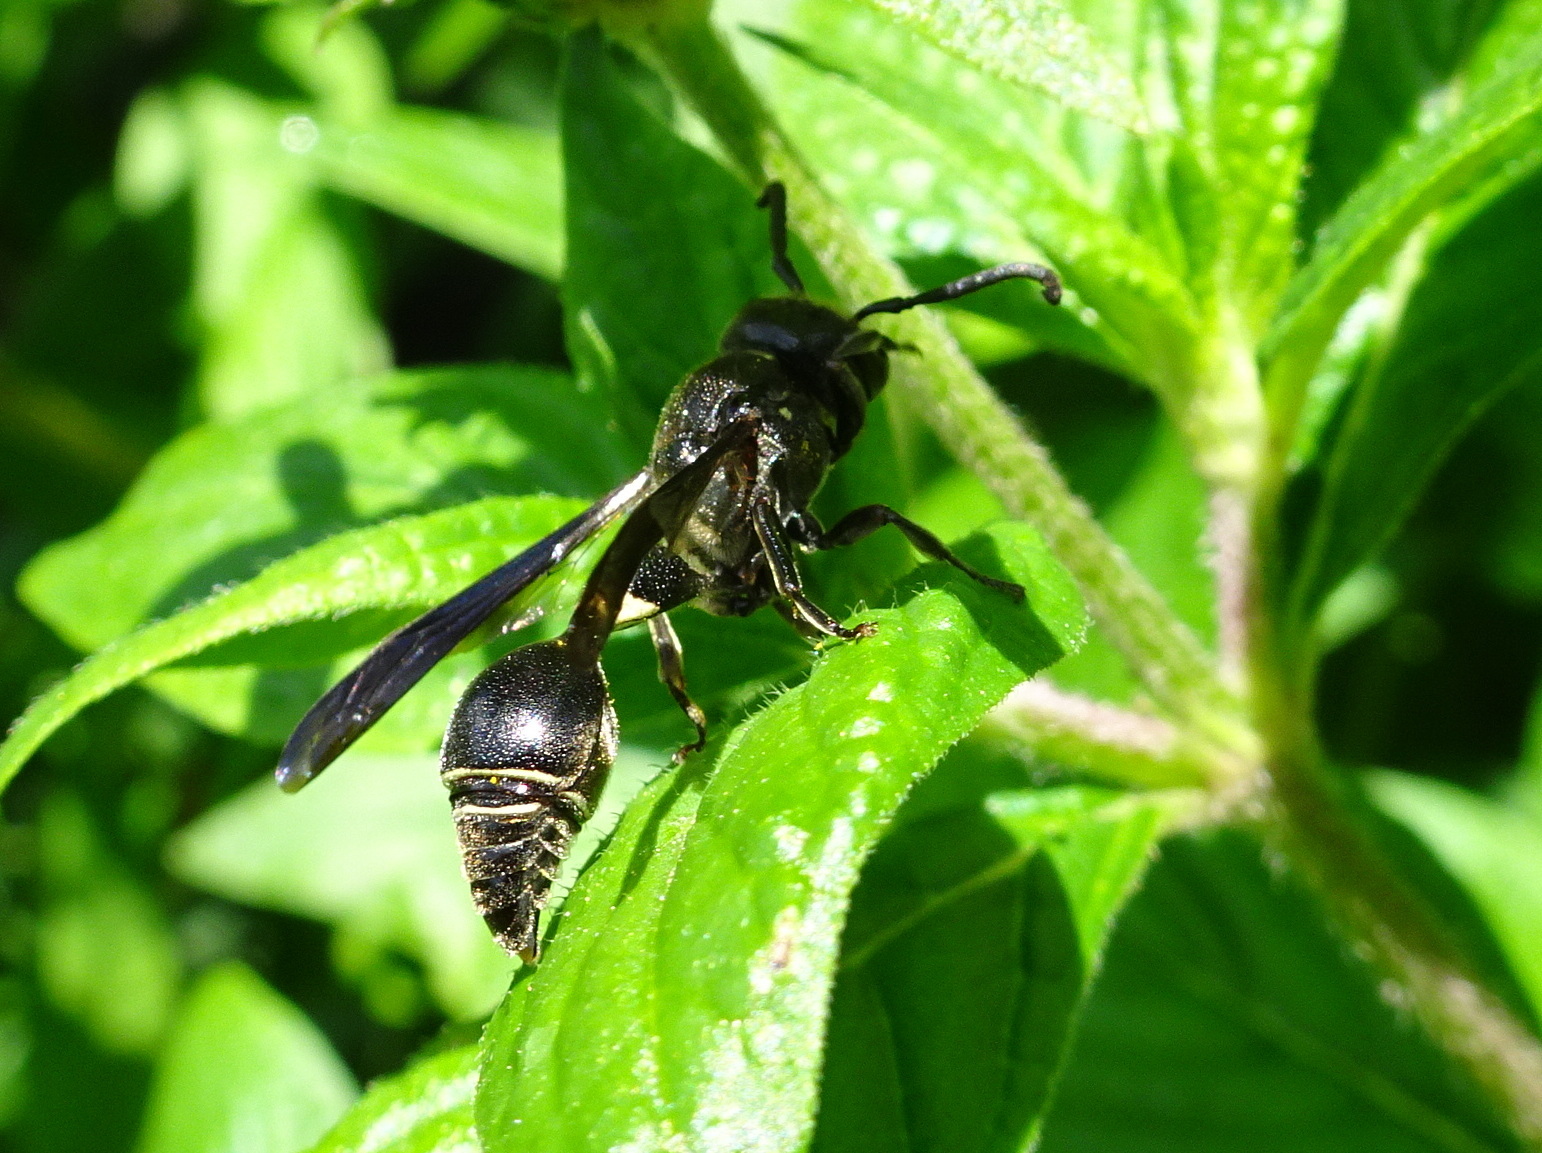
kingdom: Animalia
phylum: Arthropoda
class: Insecta
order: Hymenoptera
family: Eumenidae
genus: Zethus
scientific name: Zethus spinipes
